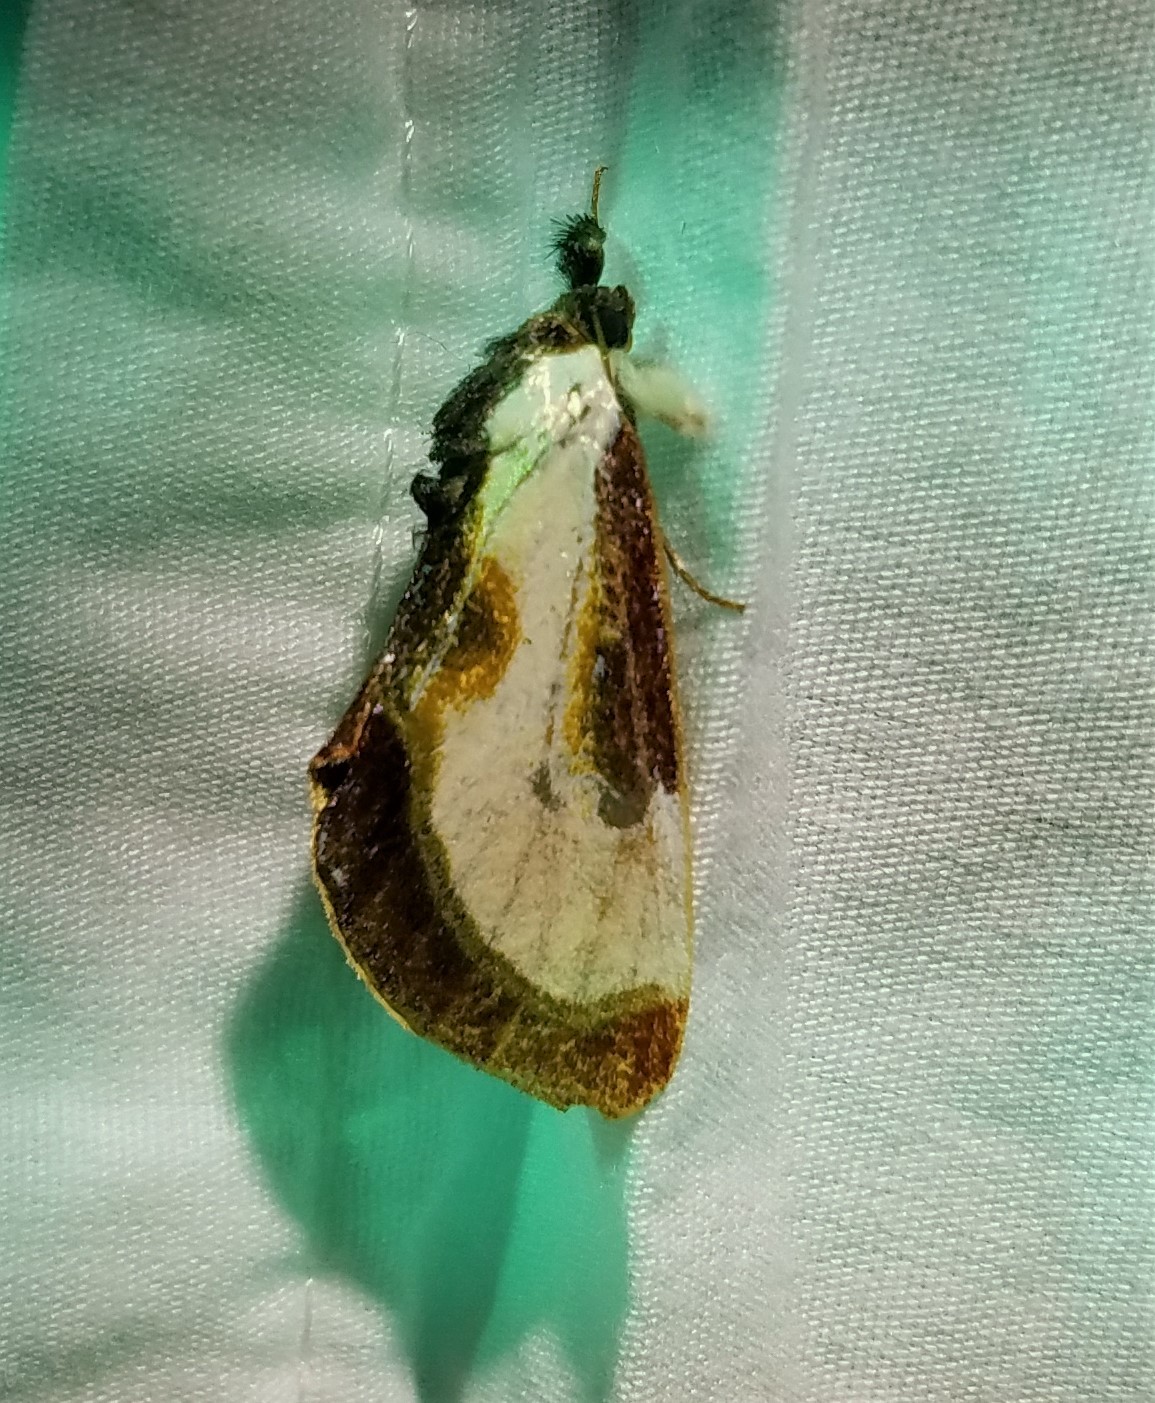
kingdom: Animalia
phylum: Arthropoda
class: Insecta
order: Lepidoptera
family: Noctuidae
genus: Eudryas
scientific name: Eudryas grata
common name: Beautiful wood-nymph
